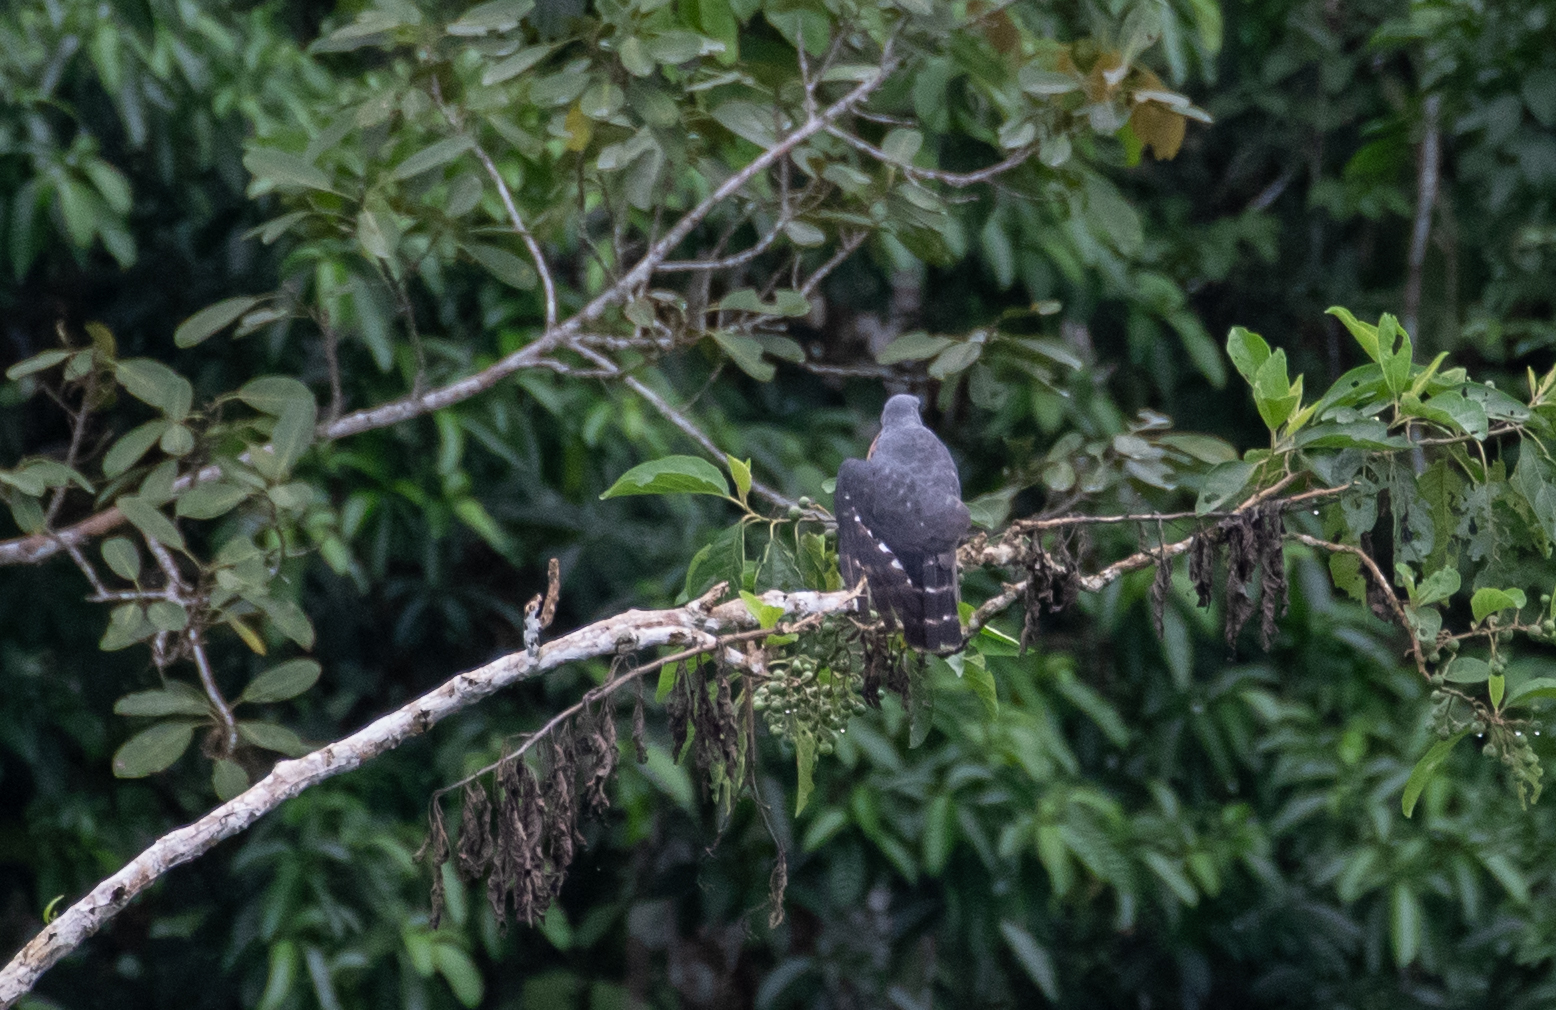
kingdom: Animalia
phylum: Chordata
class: Aves
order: Accipitriformes
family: Accipitridae
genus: Harpagus
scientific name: Harpagus bidentatus
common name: Double-toothed kite
